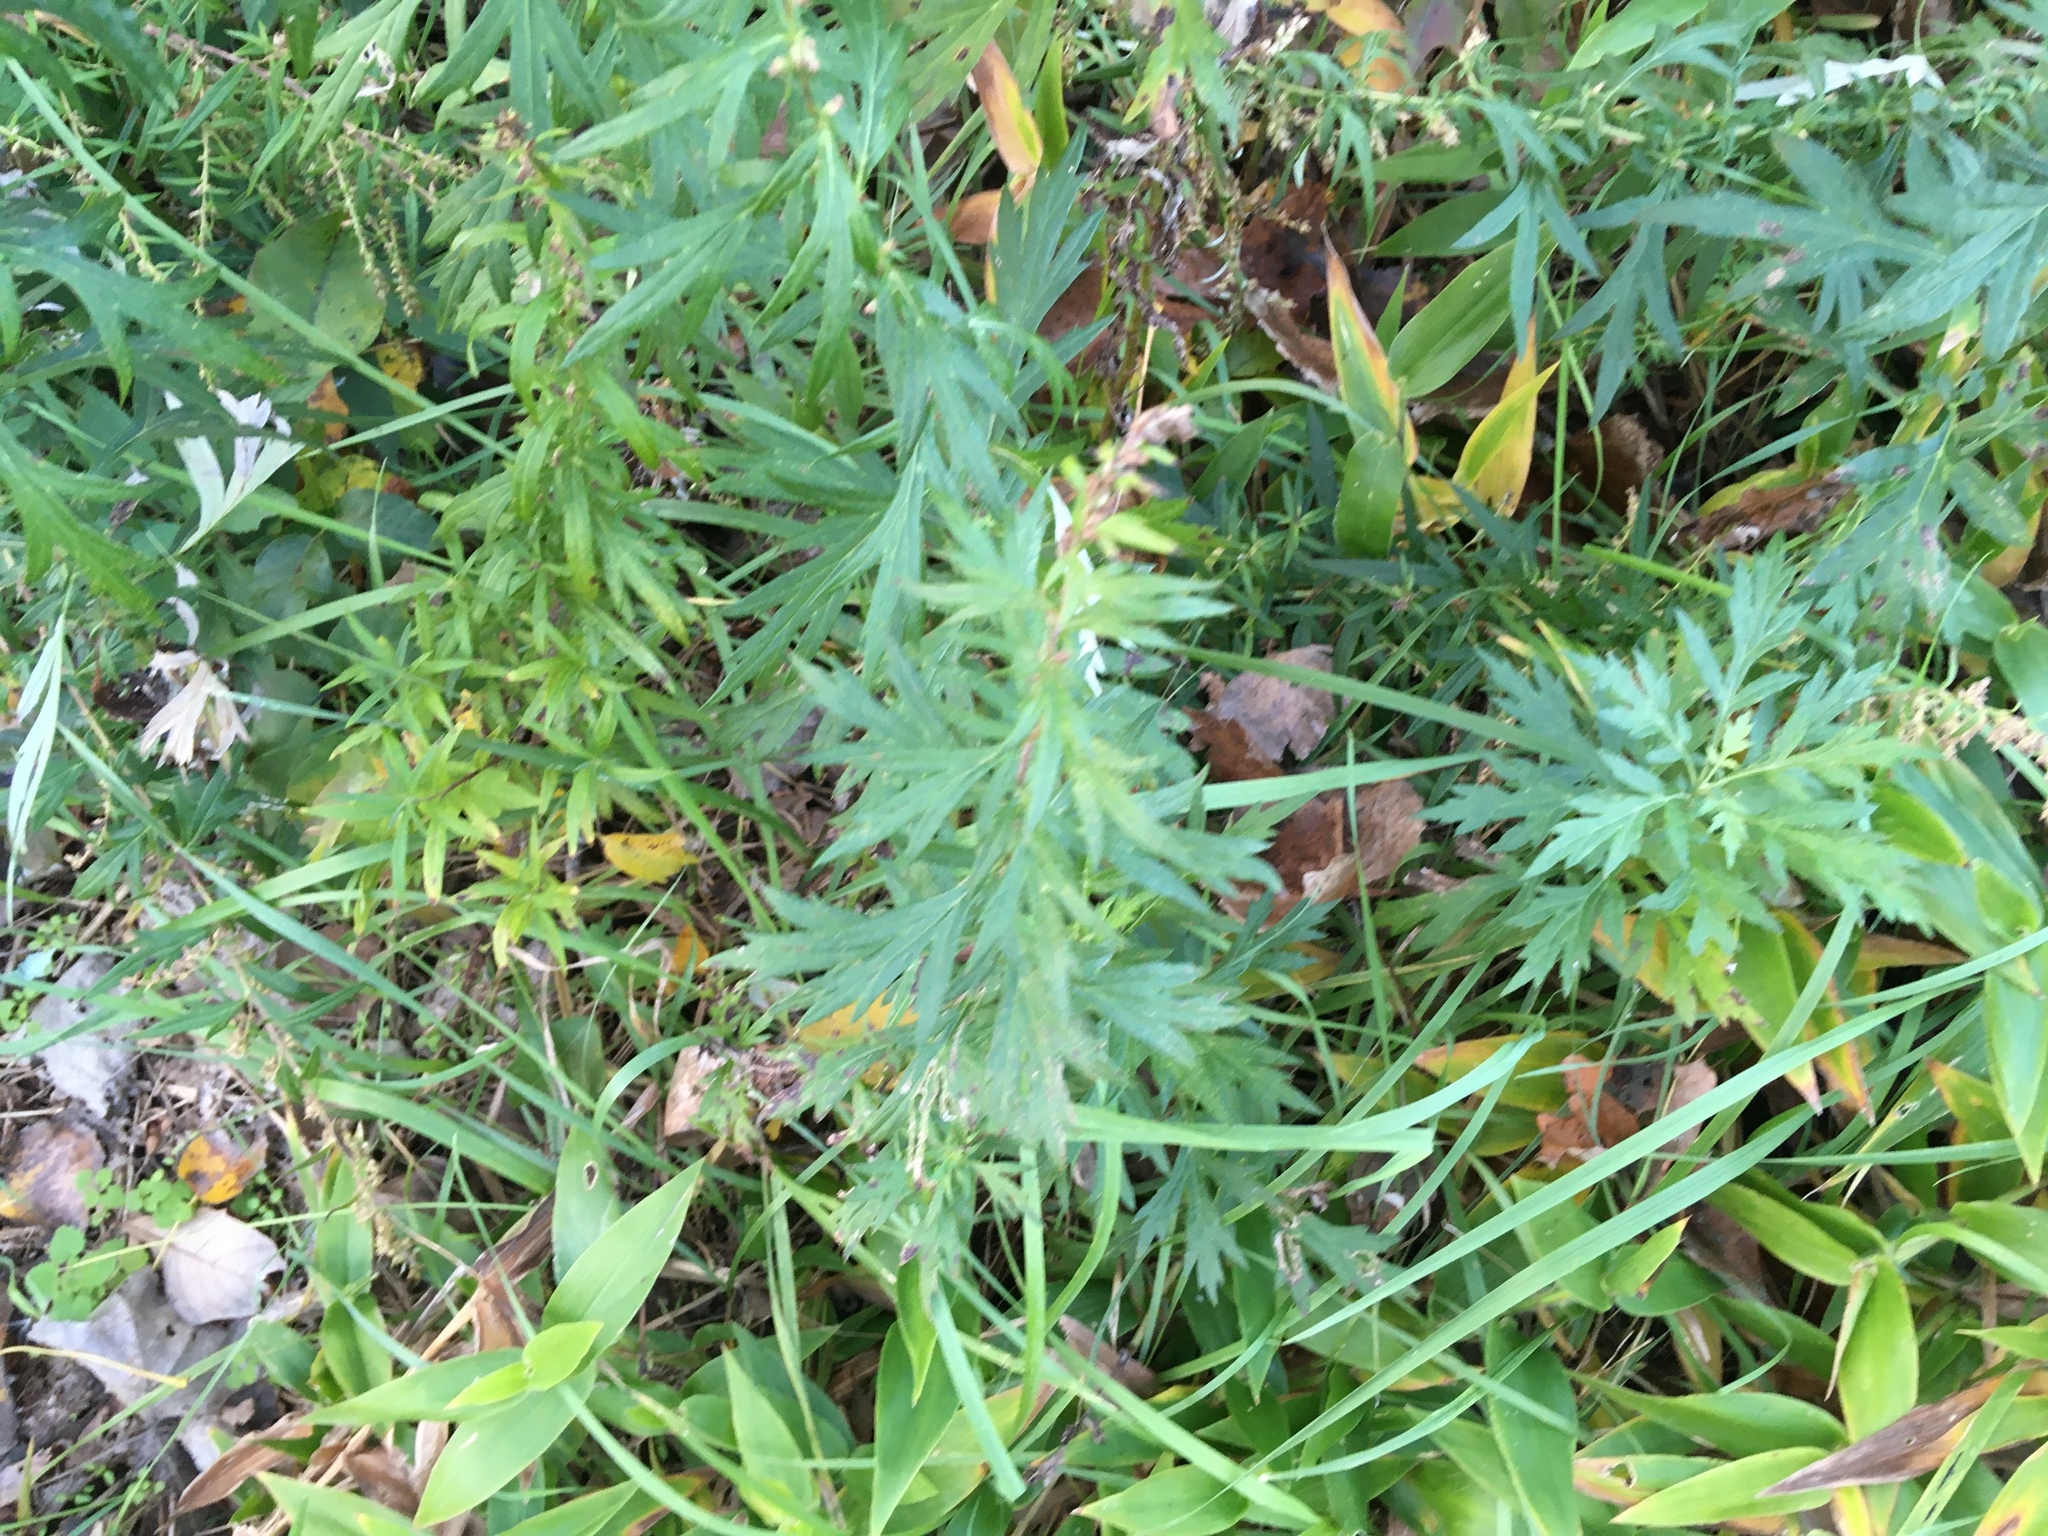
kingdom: Plantae
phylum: Tracheophyta
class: Magnoliopsida
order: Asterales
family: Asteraceae
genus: Artemisia
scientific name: Artemisia vulgaris
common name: Mugwort
